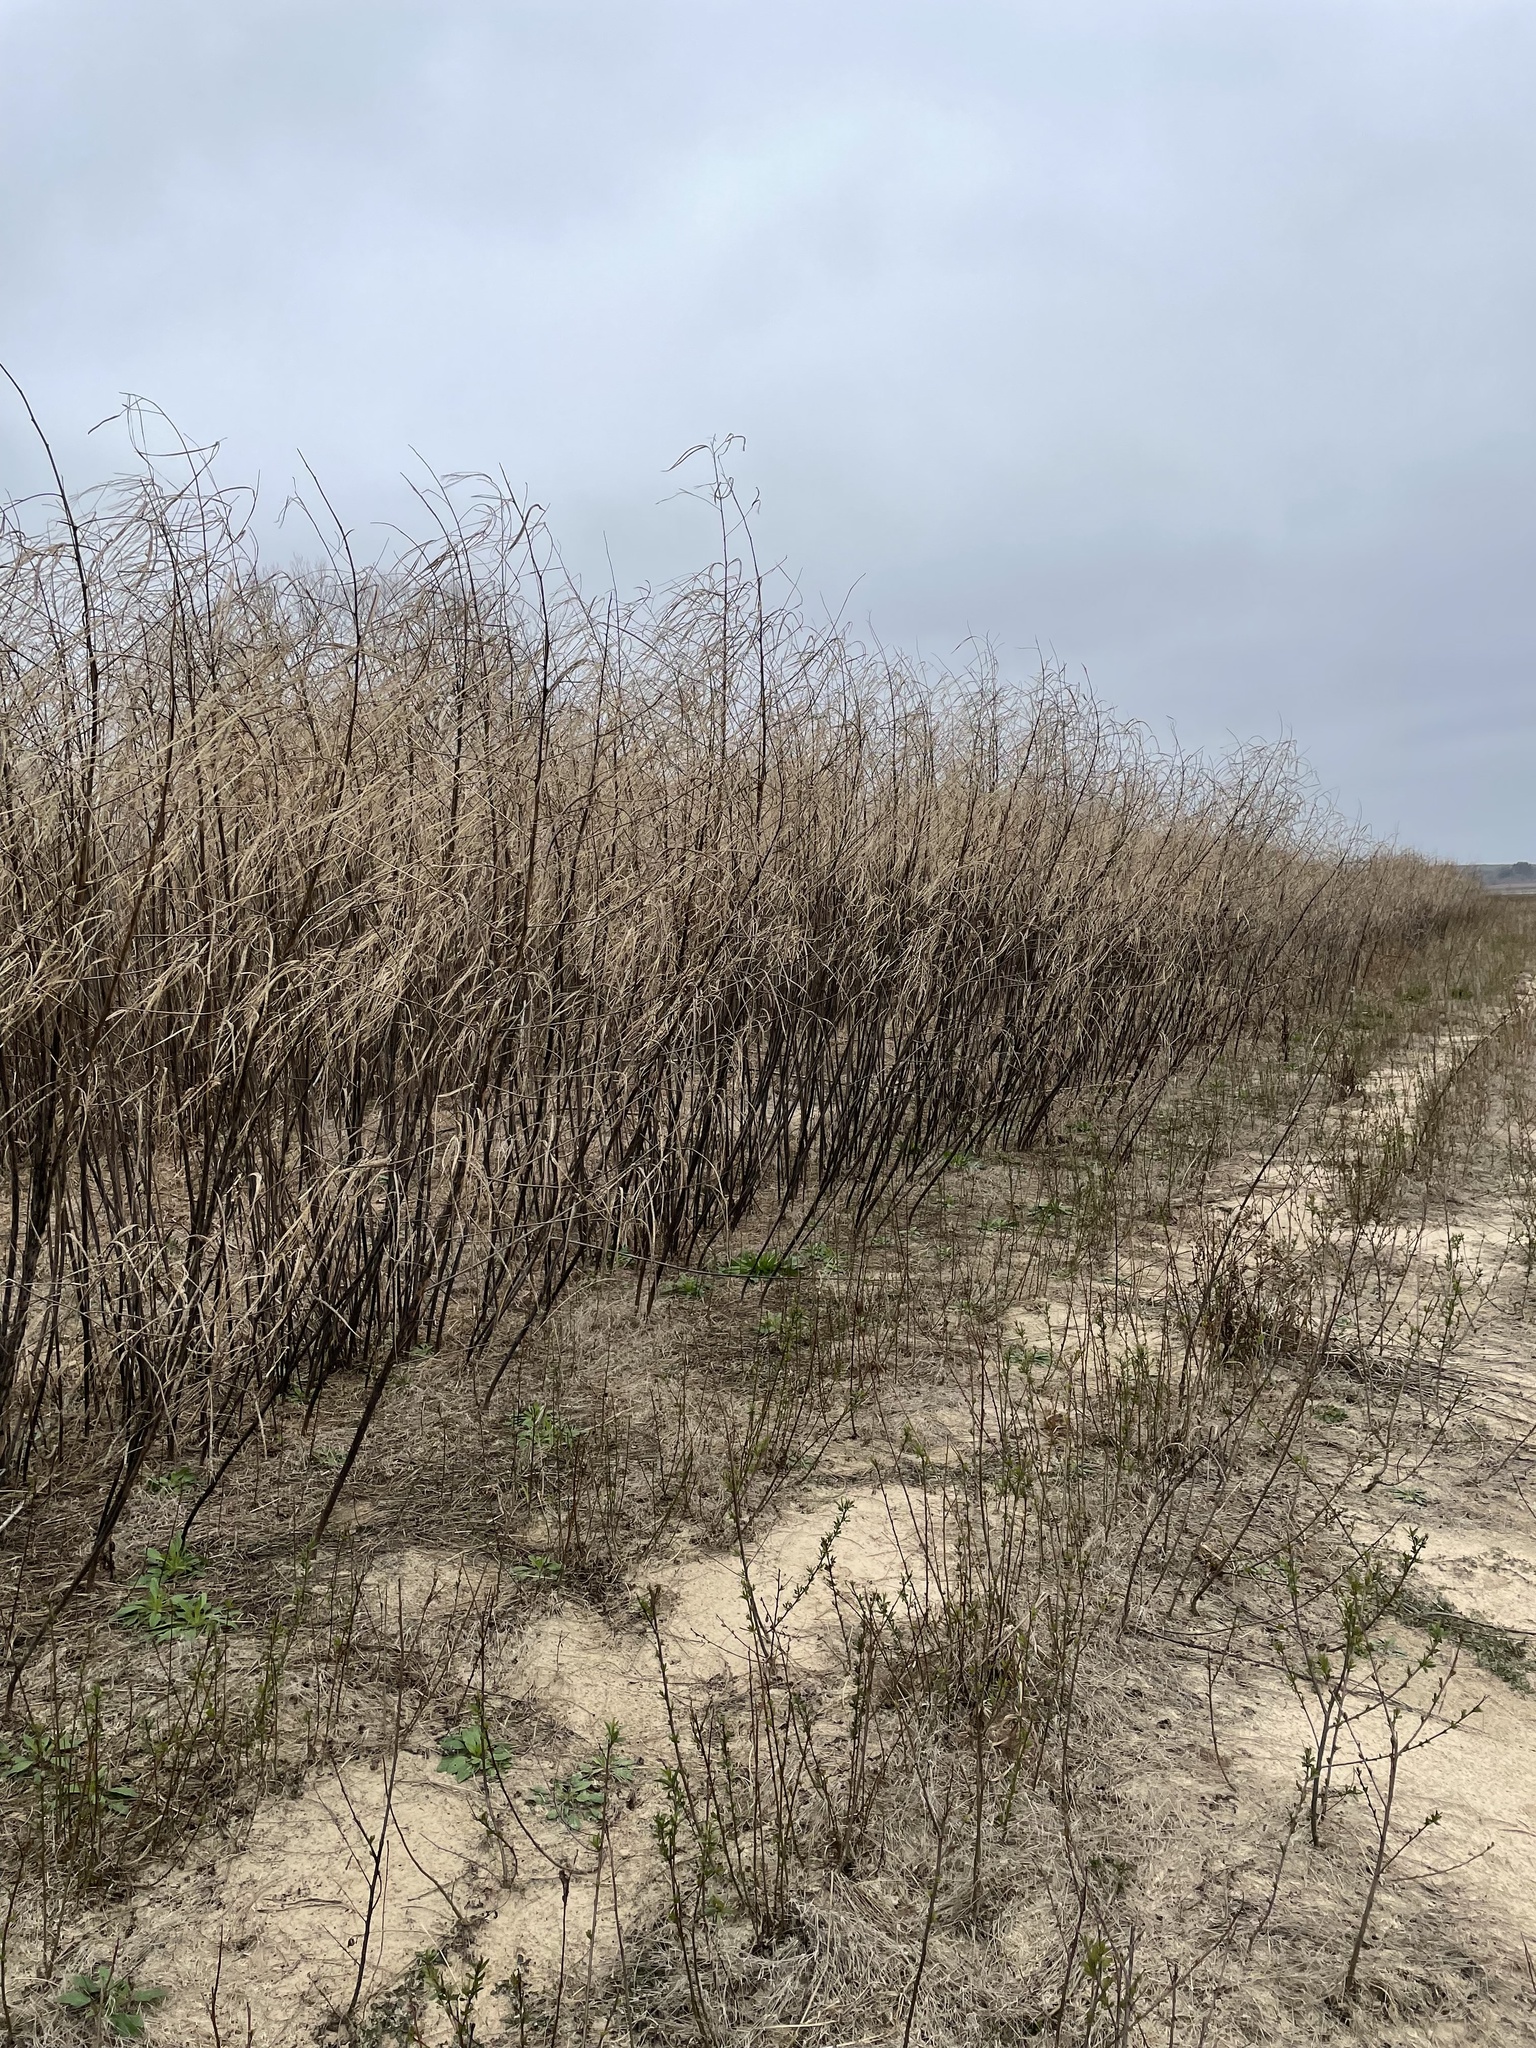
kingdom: Plantae
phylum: Tracheophyta
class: Magnoliopsida
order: Fabales
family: Fabaceae
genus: Sesbania
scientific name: Sesbania herbacea
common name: Bigpod sesbania
